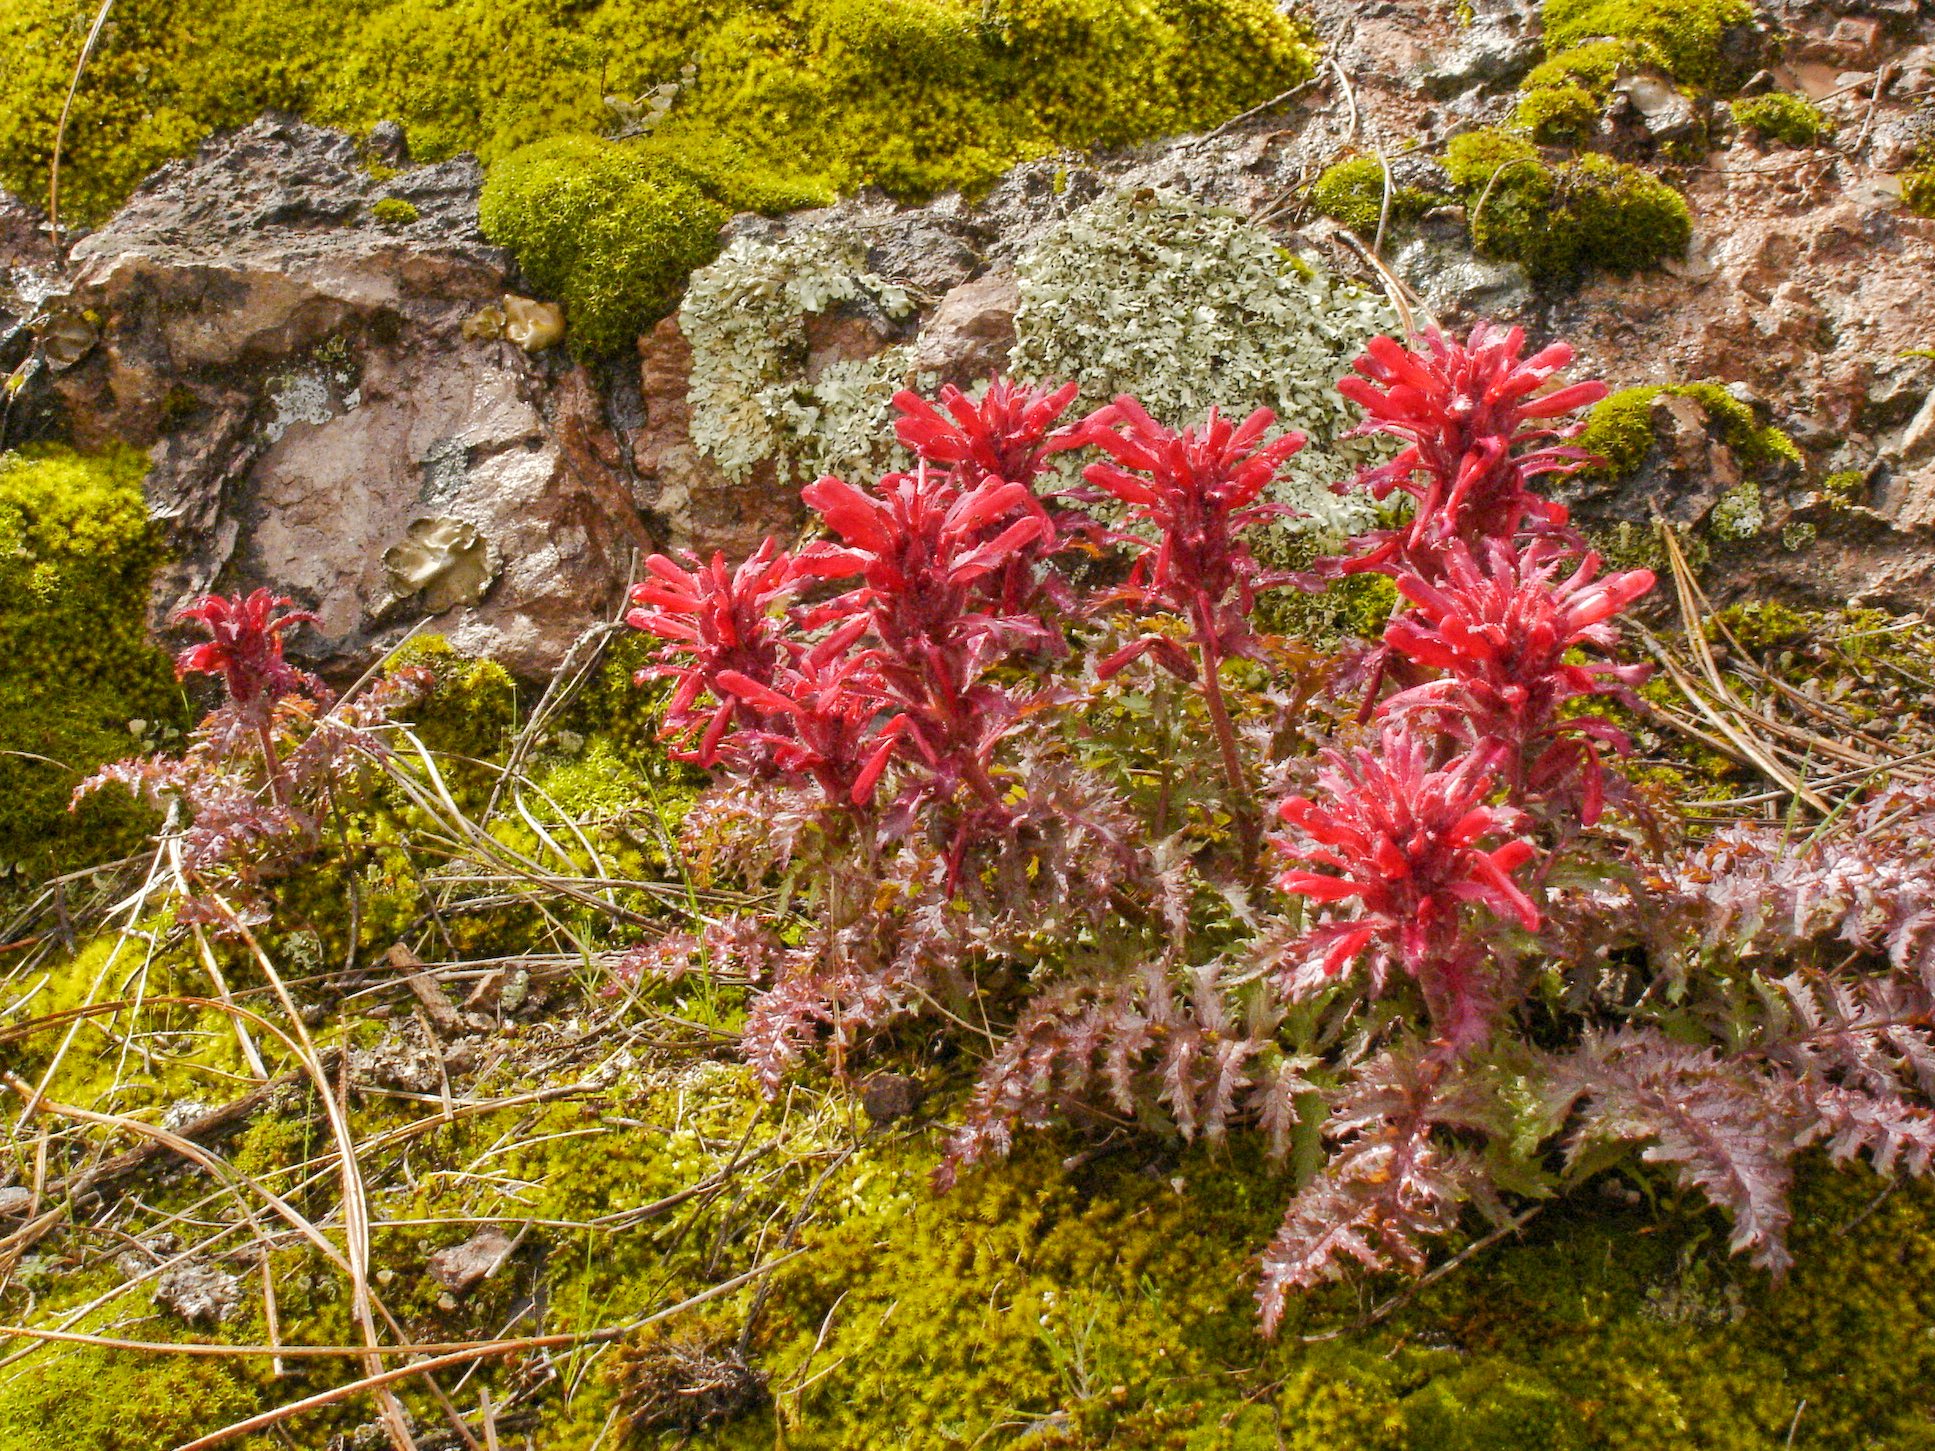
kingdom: Plantae
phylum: Tracheophyta
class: Magnoliopsida
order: Lamiales
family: Orobanchaceae
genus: Pedicularis
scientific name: Pedicularis densiflora
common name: Indian warrior
